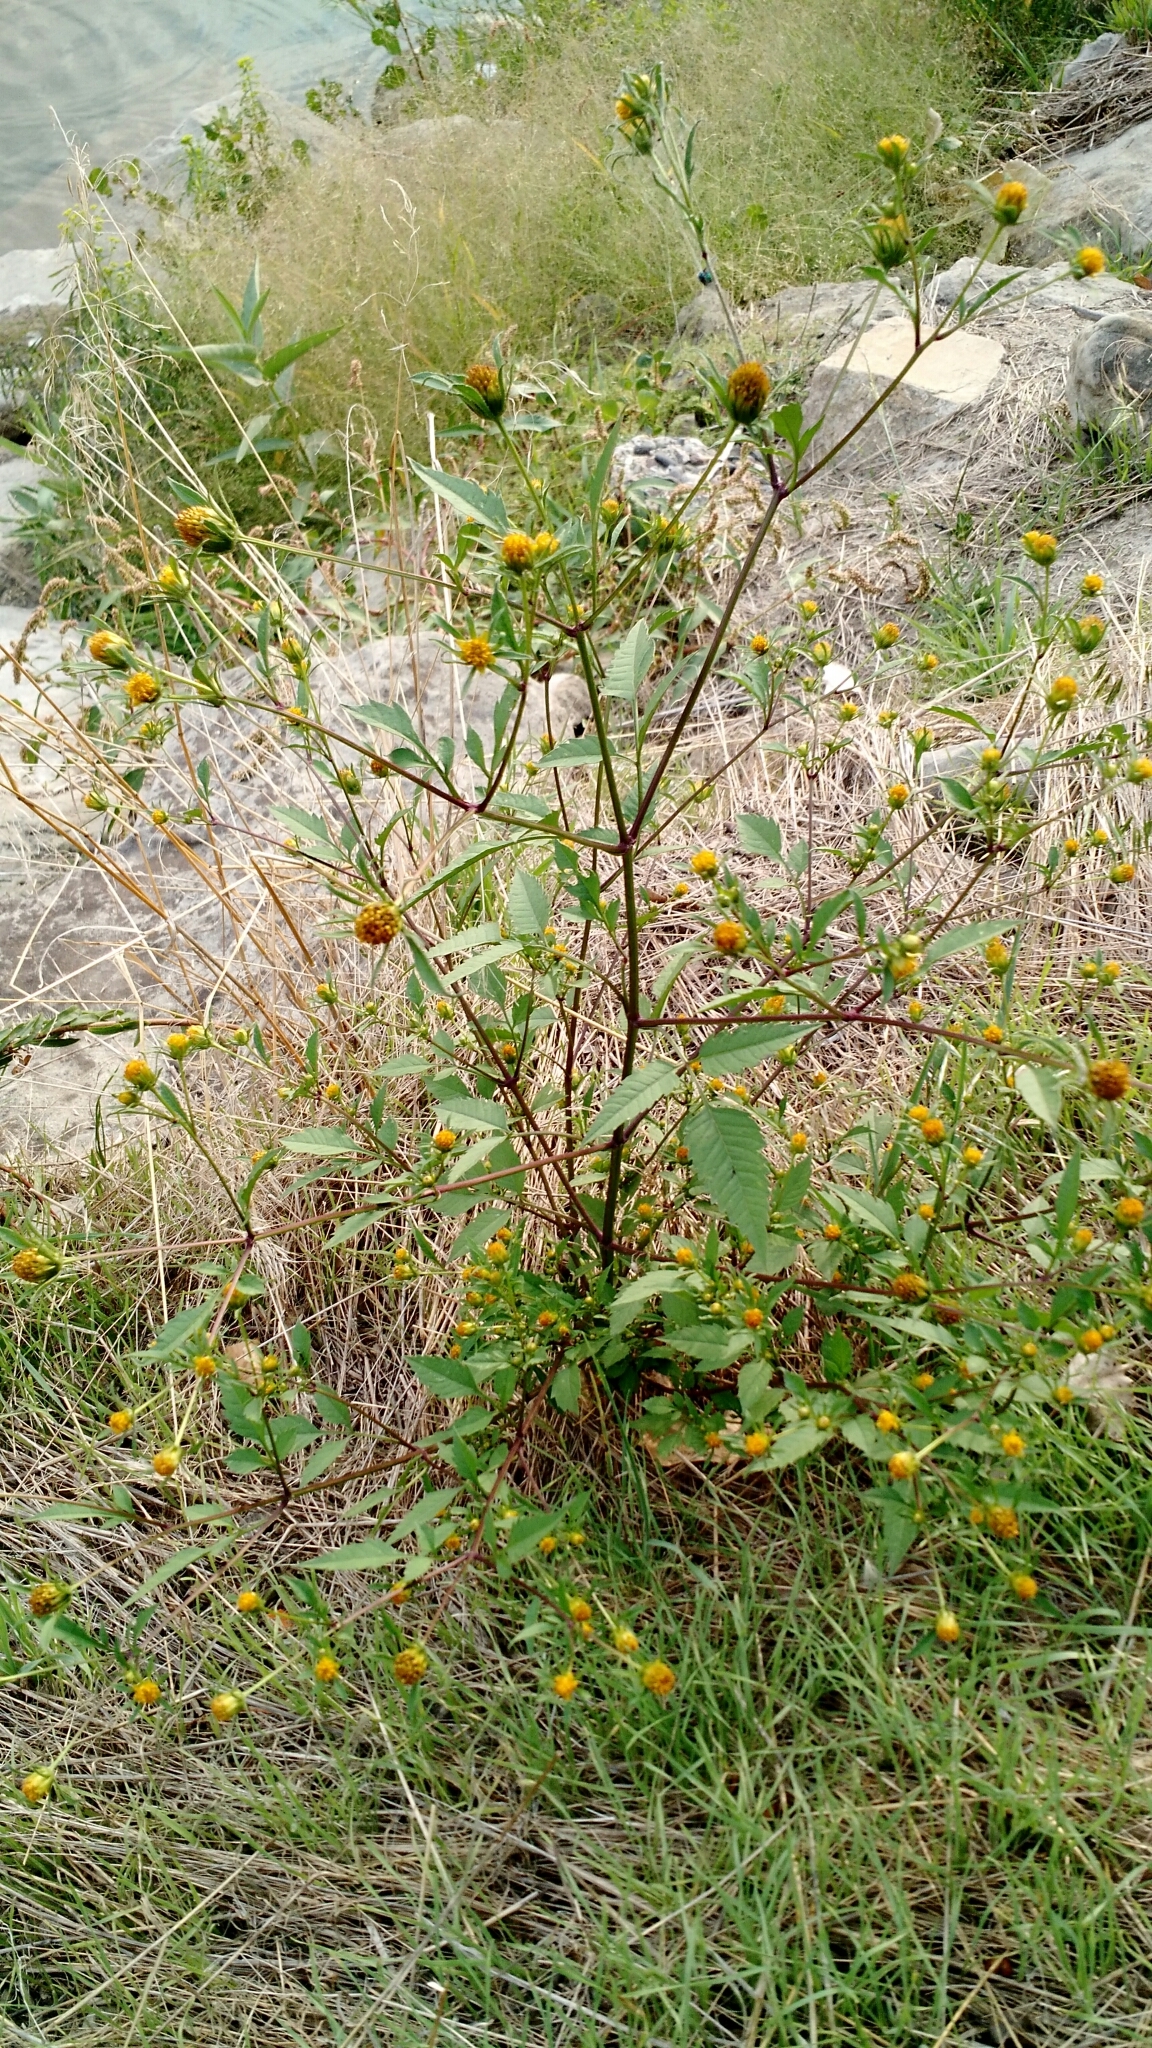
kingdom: Plantae
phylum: Tracheophyta
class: Magnoliopsida
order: Asterales
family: Asteraceae
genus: Bidens
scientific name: Bidens frondosa
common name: Beggarticks
